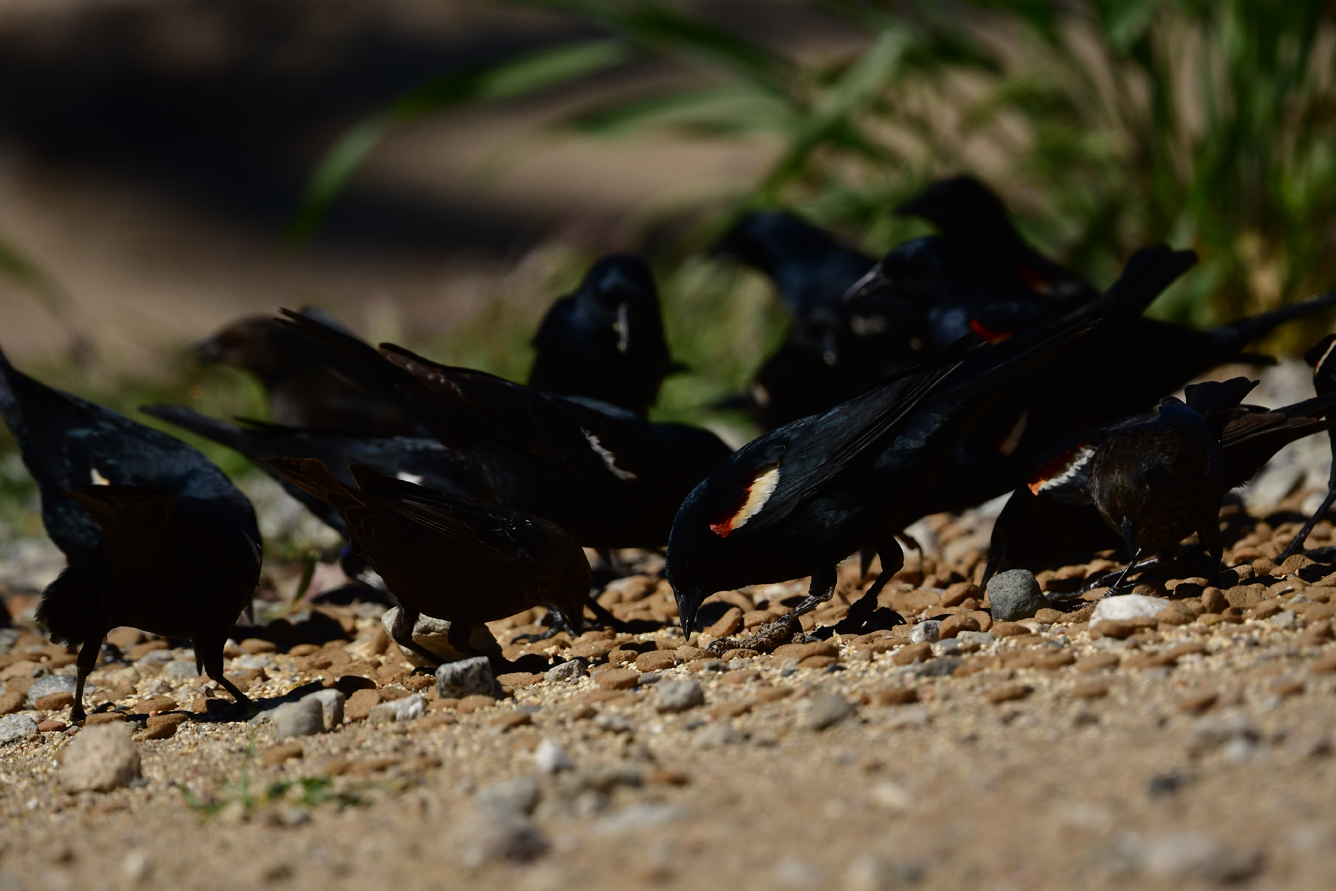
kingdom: Animalia
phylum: Chordata
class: Aves
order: Passeriformes
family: Icteridae
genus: Agelaius
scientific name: Agelaius tricolor
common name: Tricolored blackbird
